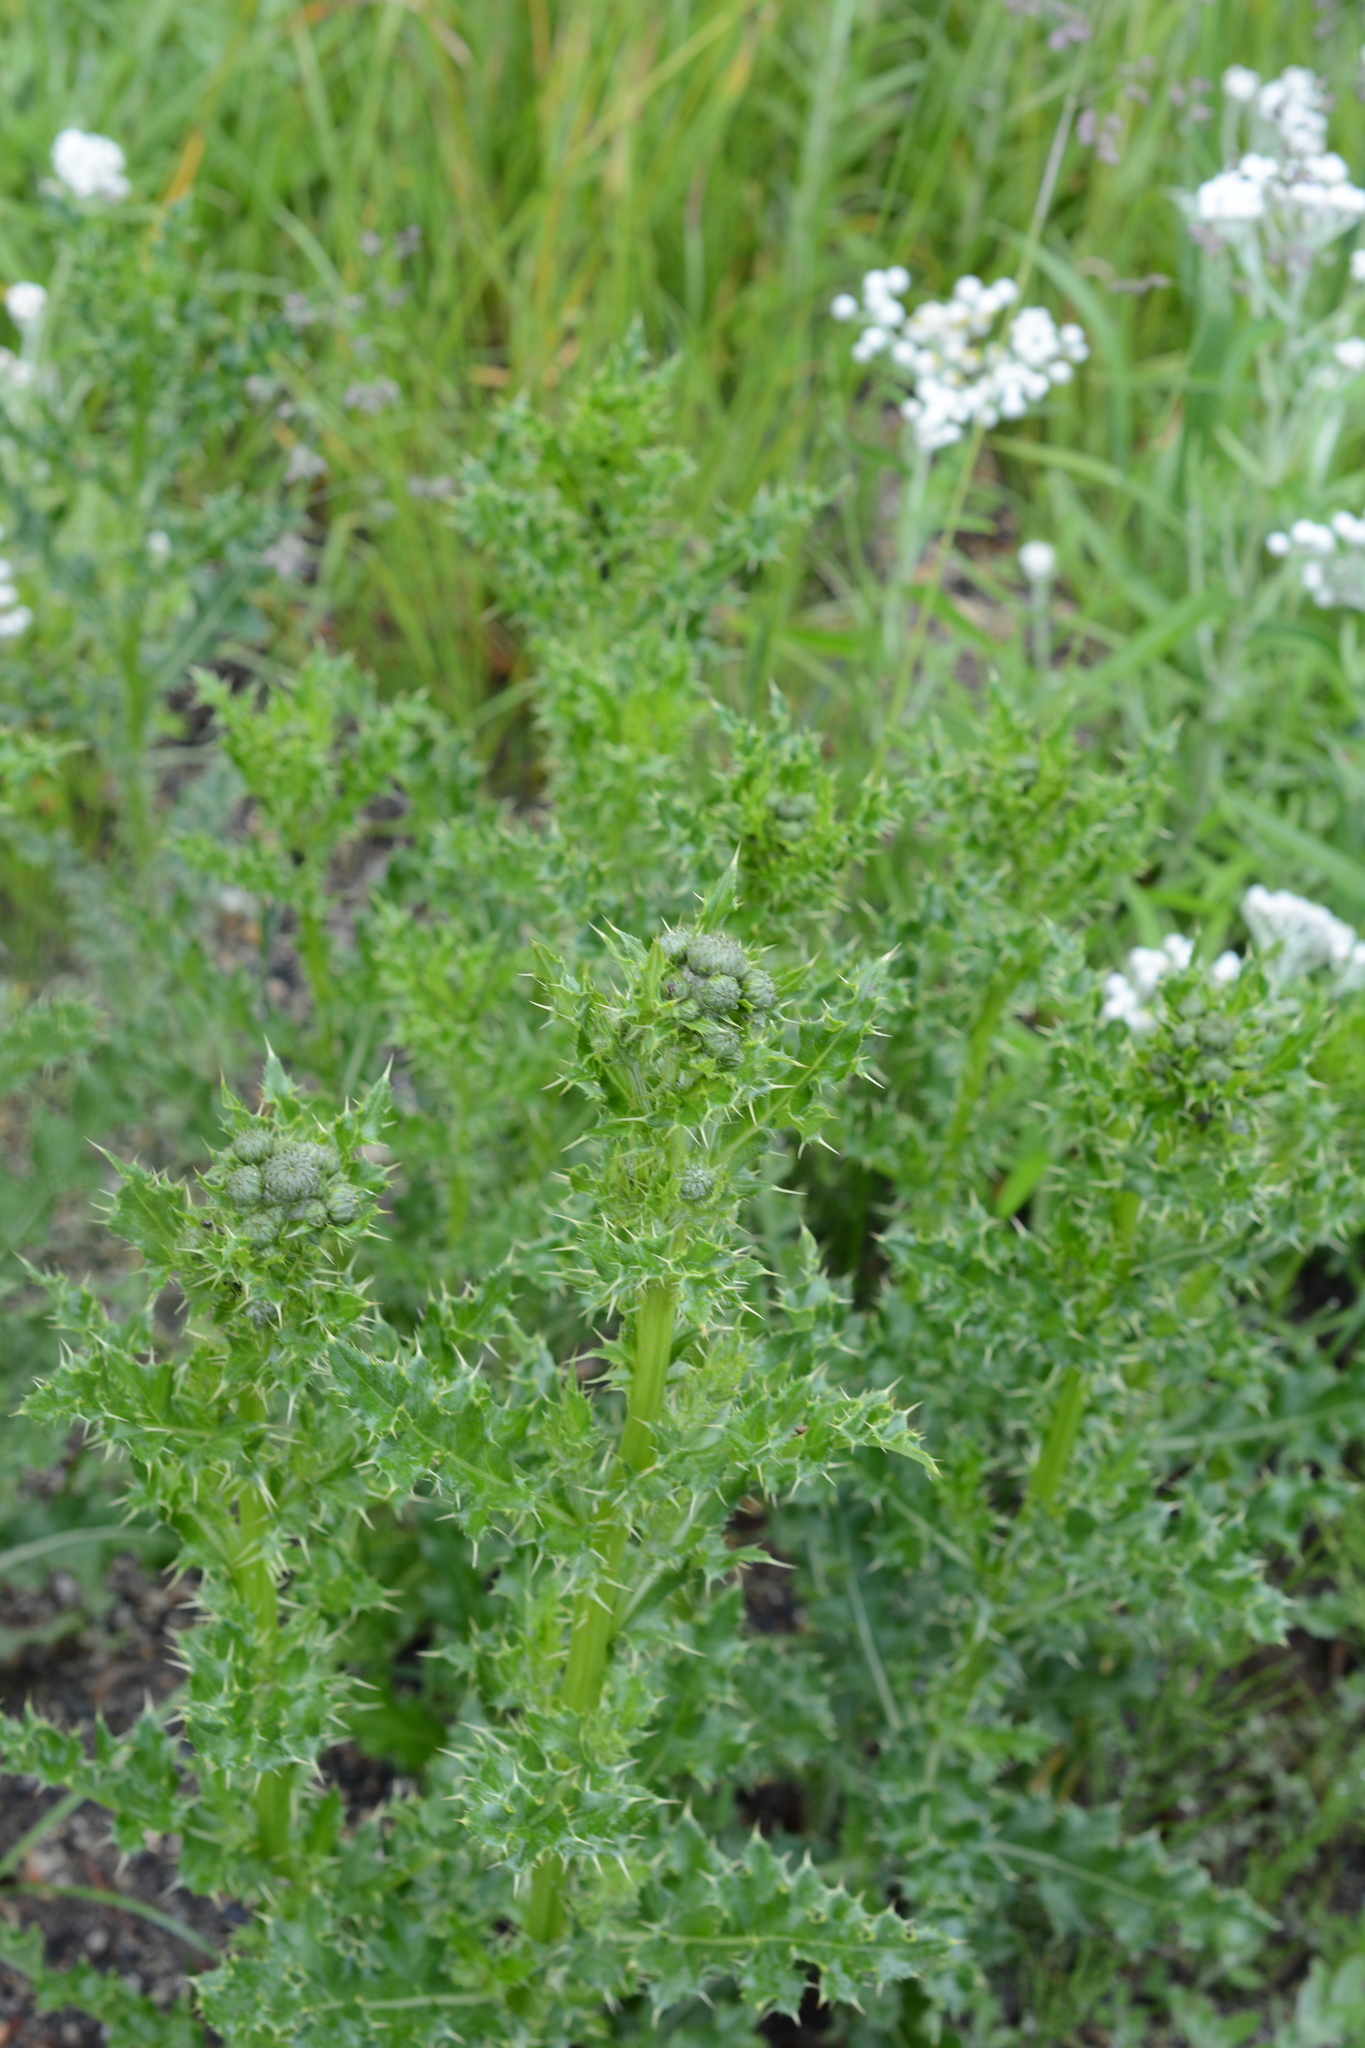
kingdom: Plantae
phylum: Tracheophyta
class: Magnoliopsida
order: Asterales
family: Asteraceae
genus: Cirsium
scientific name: Cirsium arvense
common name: Creeping thistle
